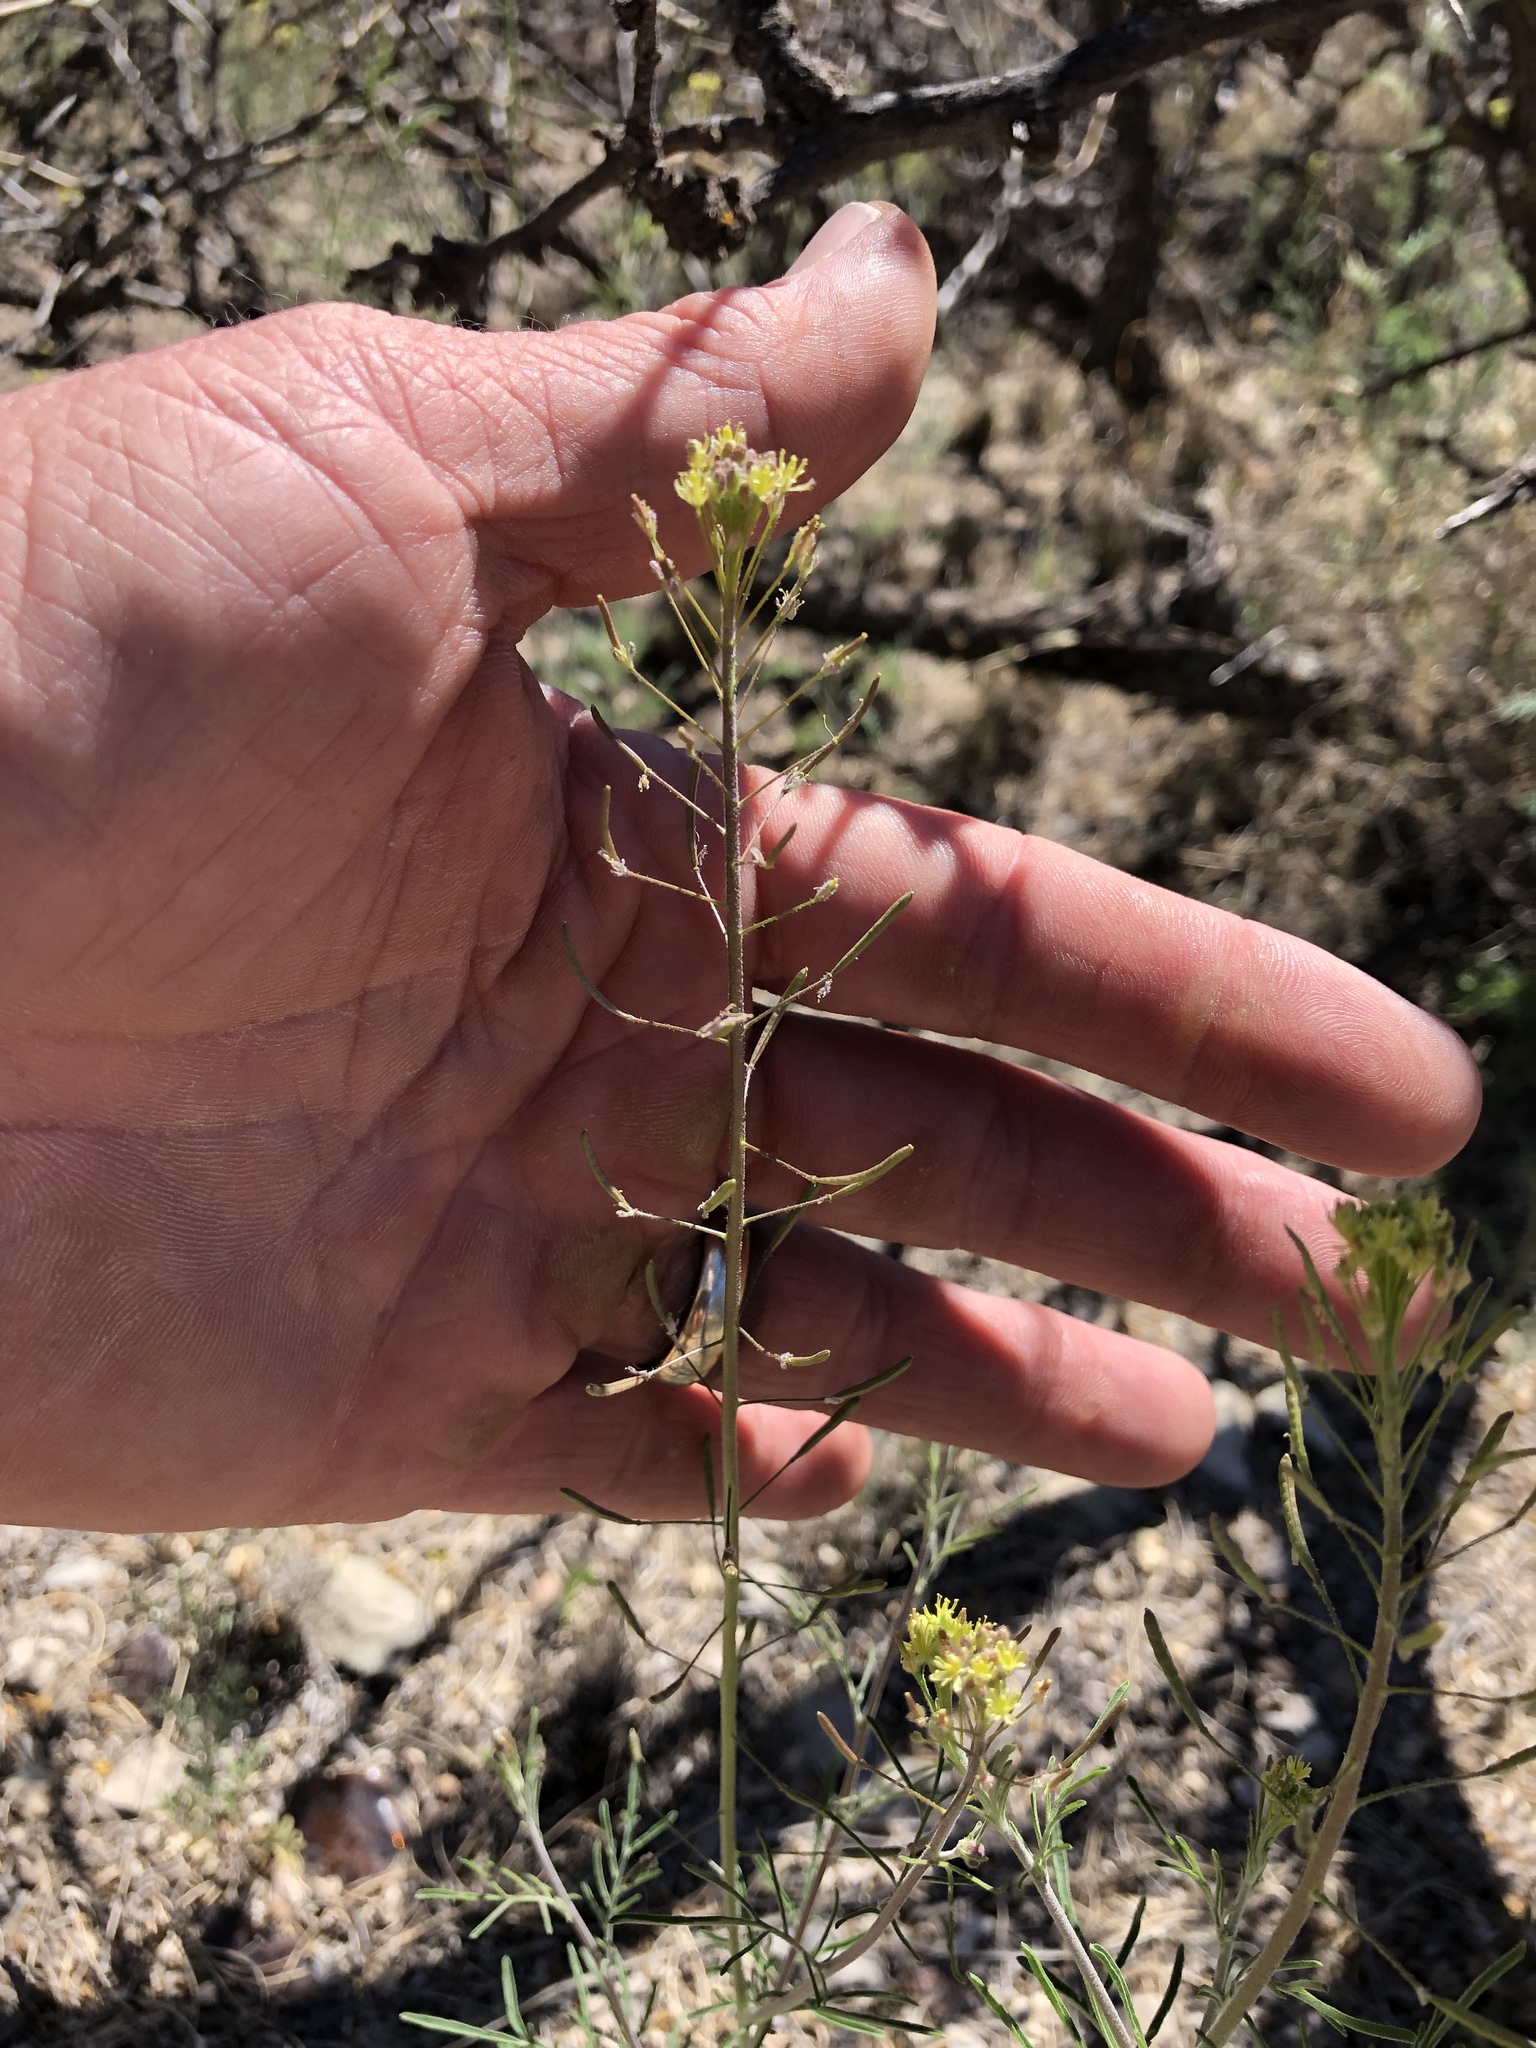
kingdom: Plantae
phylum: Tracheophyta
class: Magnoliopsida
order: Brassicales
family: Brassicaceae
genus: Descurainia
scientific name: Descurainia pinnata
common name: Western tansy mustard
